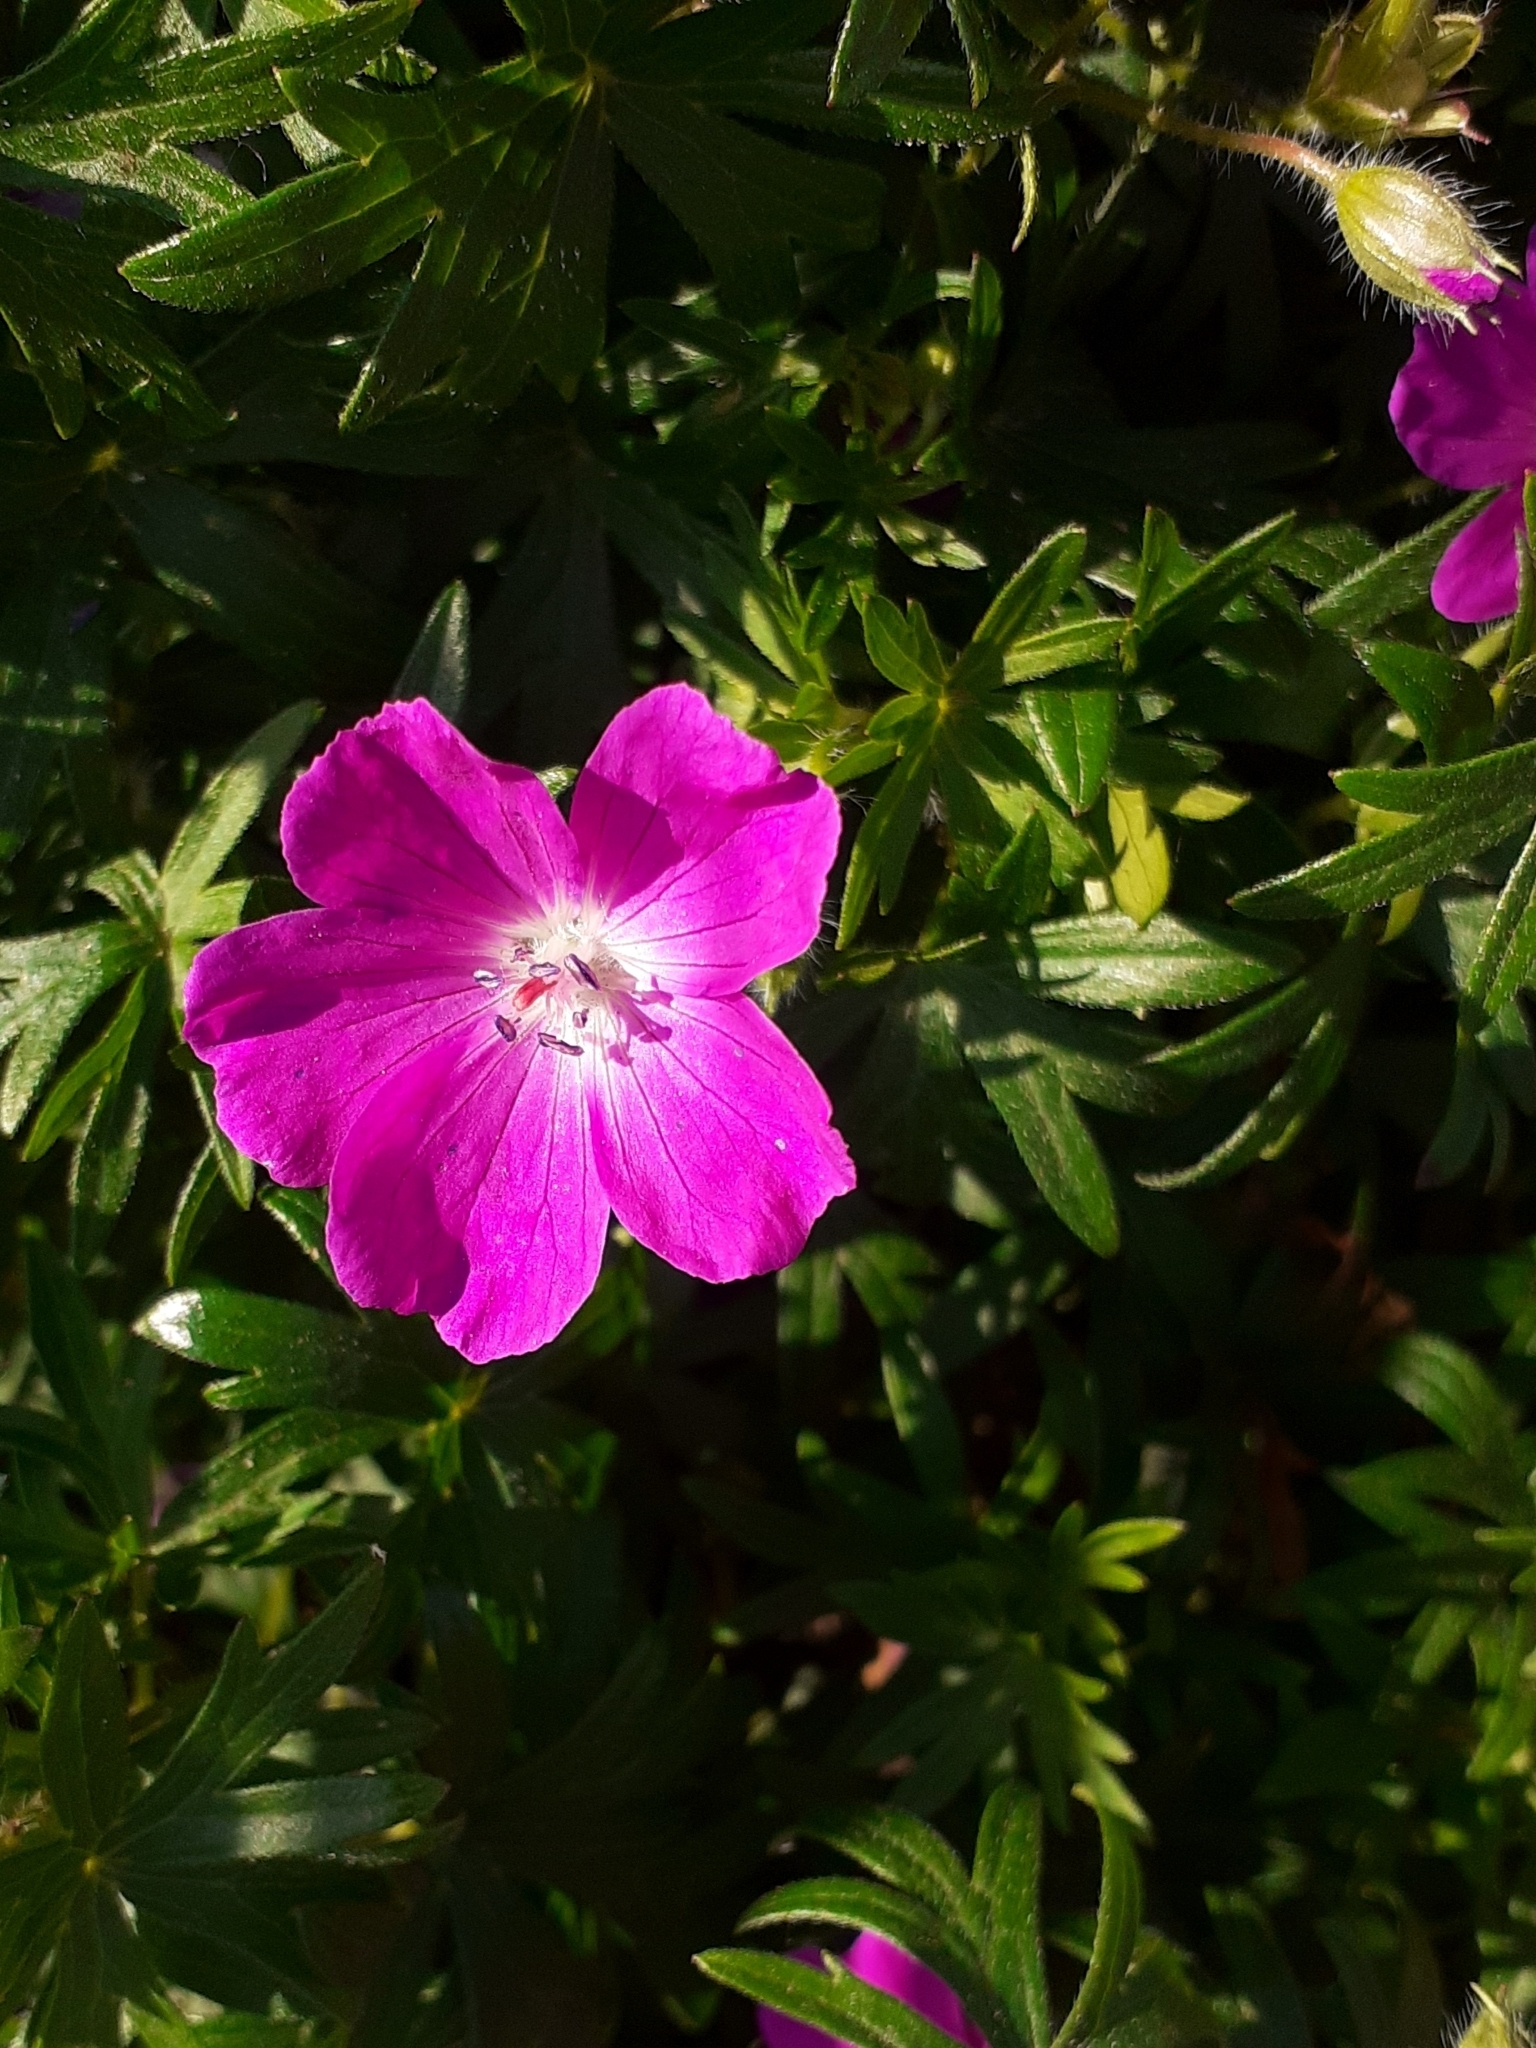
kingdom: Plantae
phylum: Tracheophyta
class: Magnoliopsida
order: Geraniales
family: Geraniaceae
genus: Geranium
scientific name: Geranium sanguineum
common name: Bloody crane's-bill
